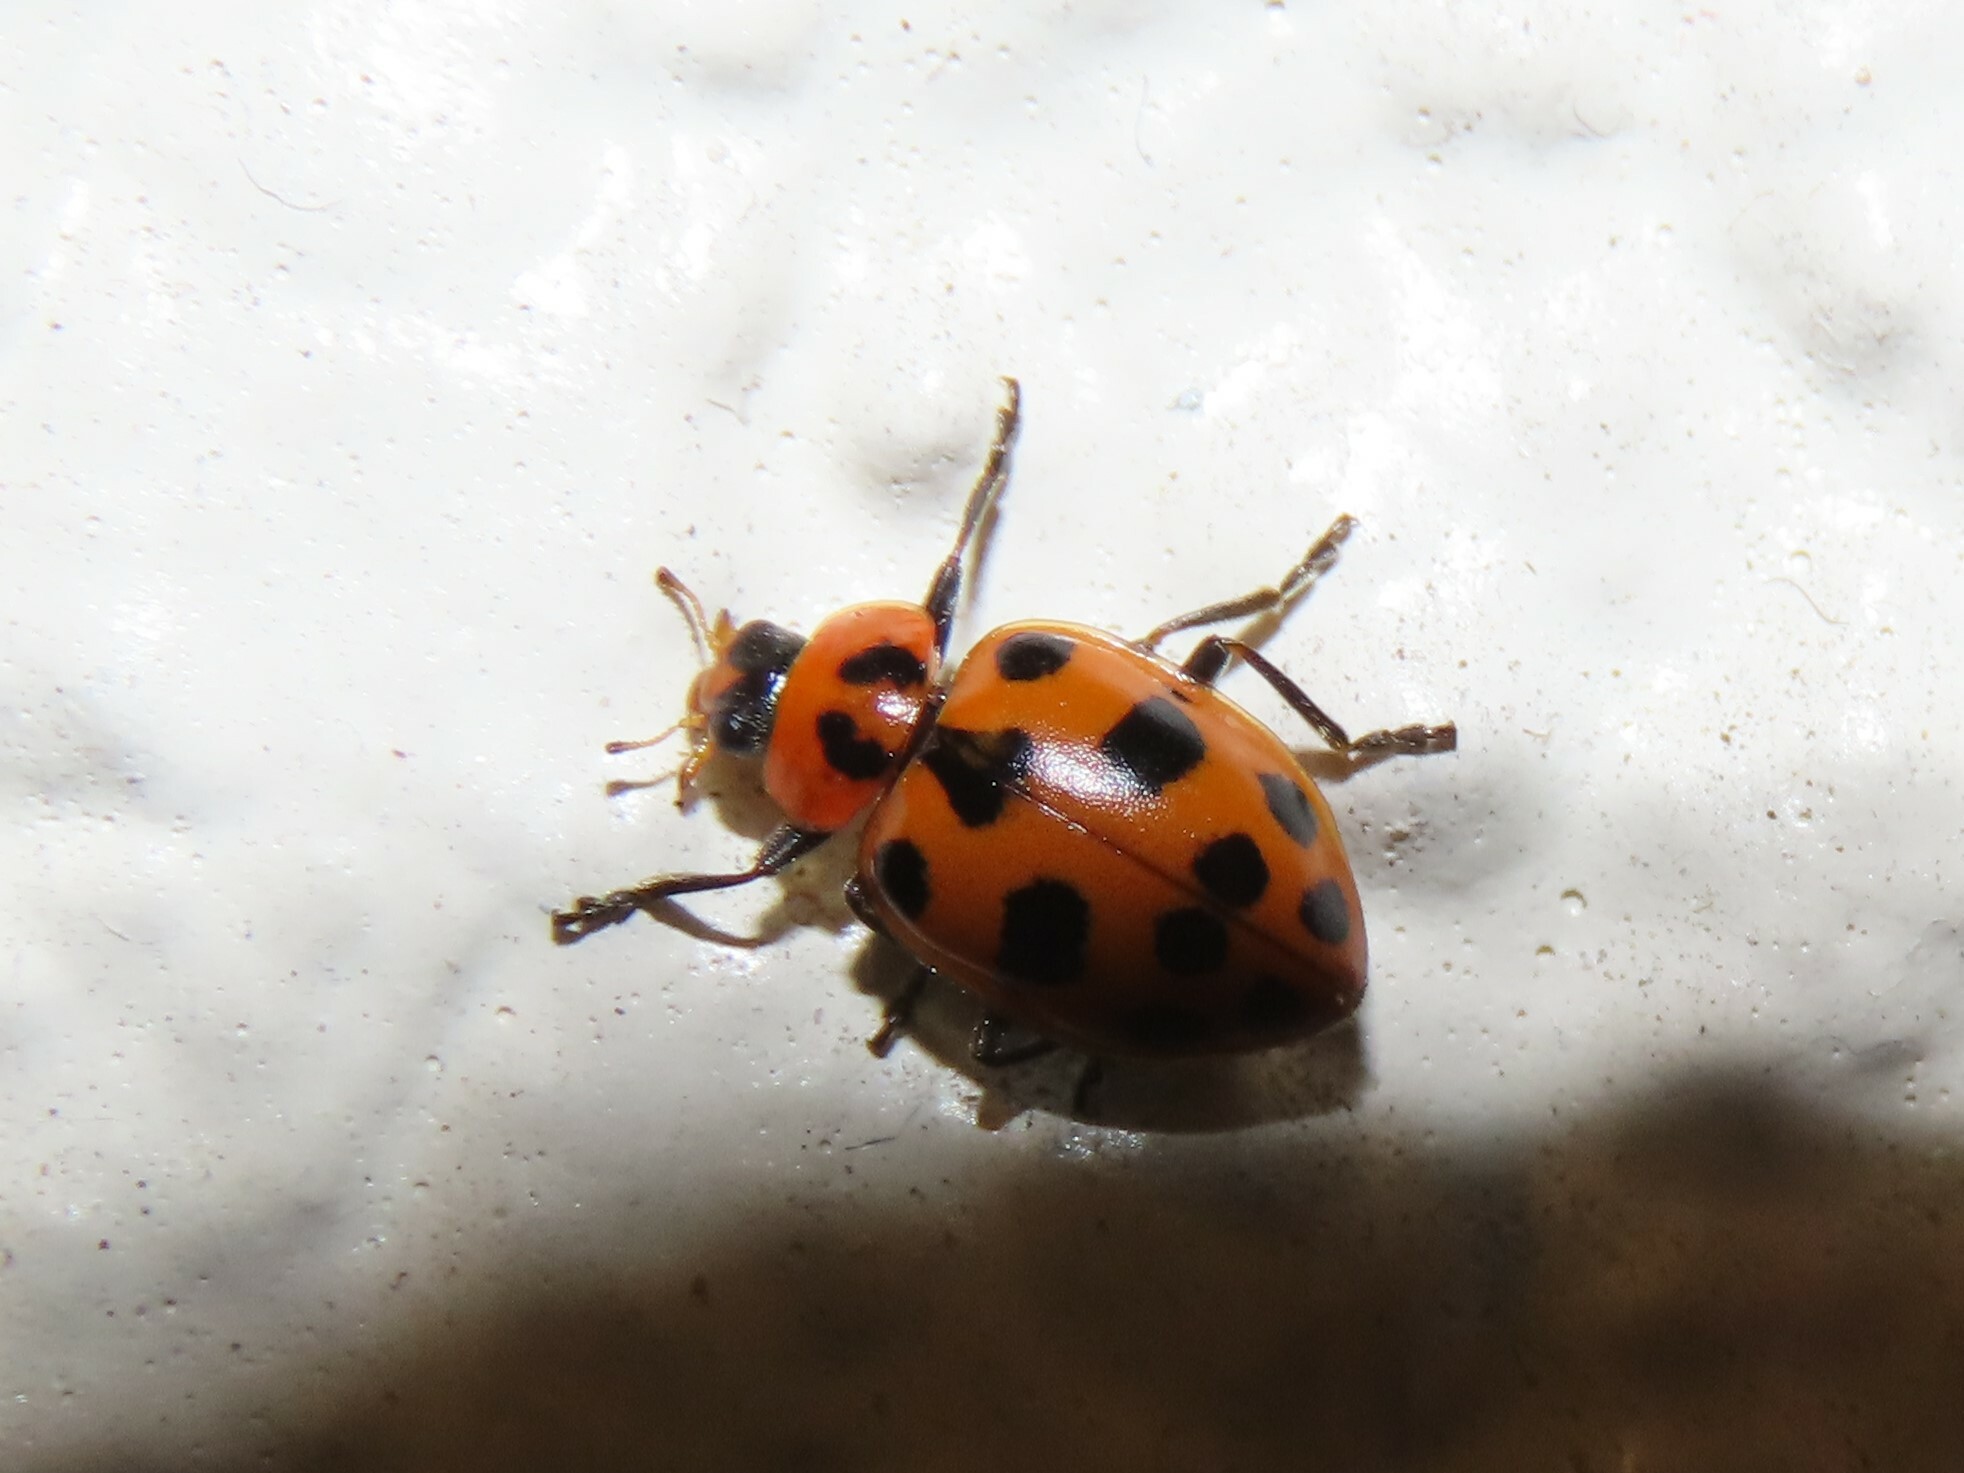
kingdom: Animalia
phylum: Arthropoda
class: Insecta
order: Coleoptera
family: Coccinellidae
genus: Coleomegilla
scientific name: Coleomegilla maculata
